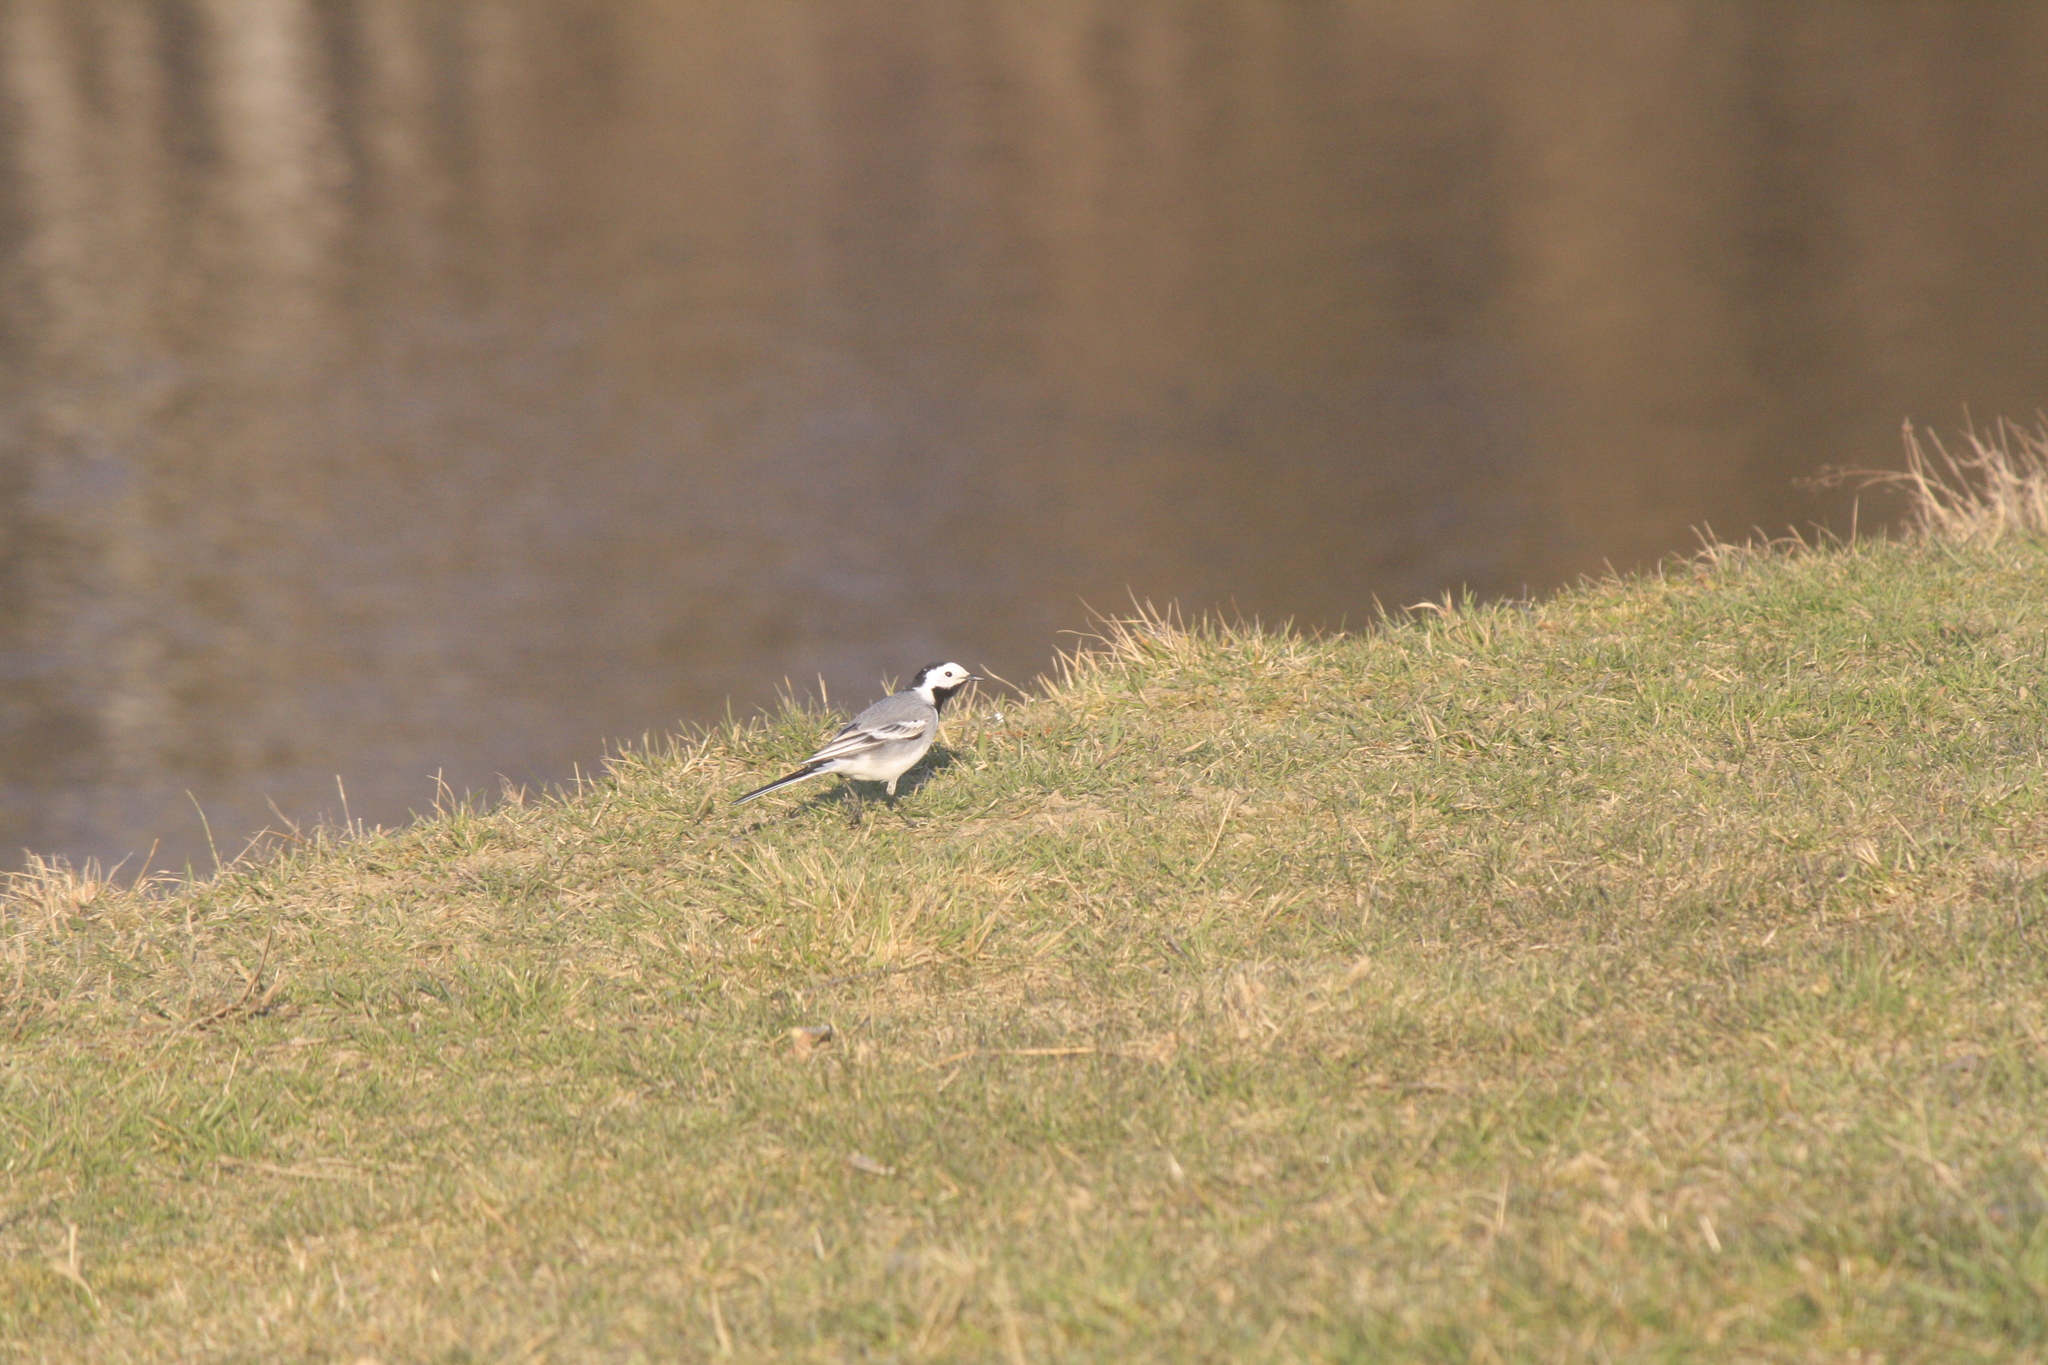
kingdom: Animalia
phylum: Chordata
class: Aves
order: Passeriformes
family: Motacillidae
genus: Motacilla
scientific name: Motacilla alba
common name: White wagtail
